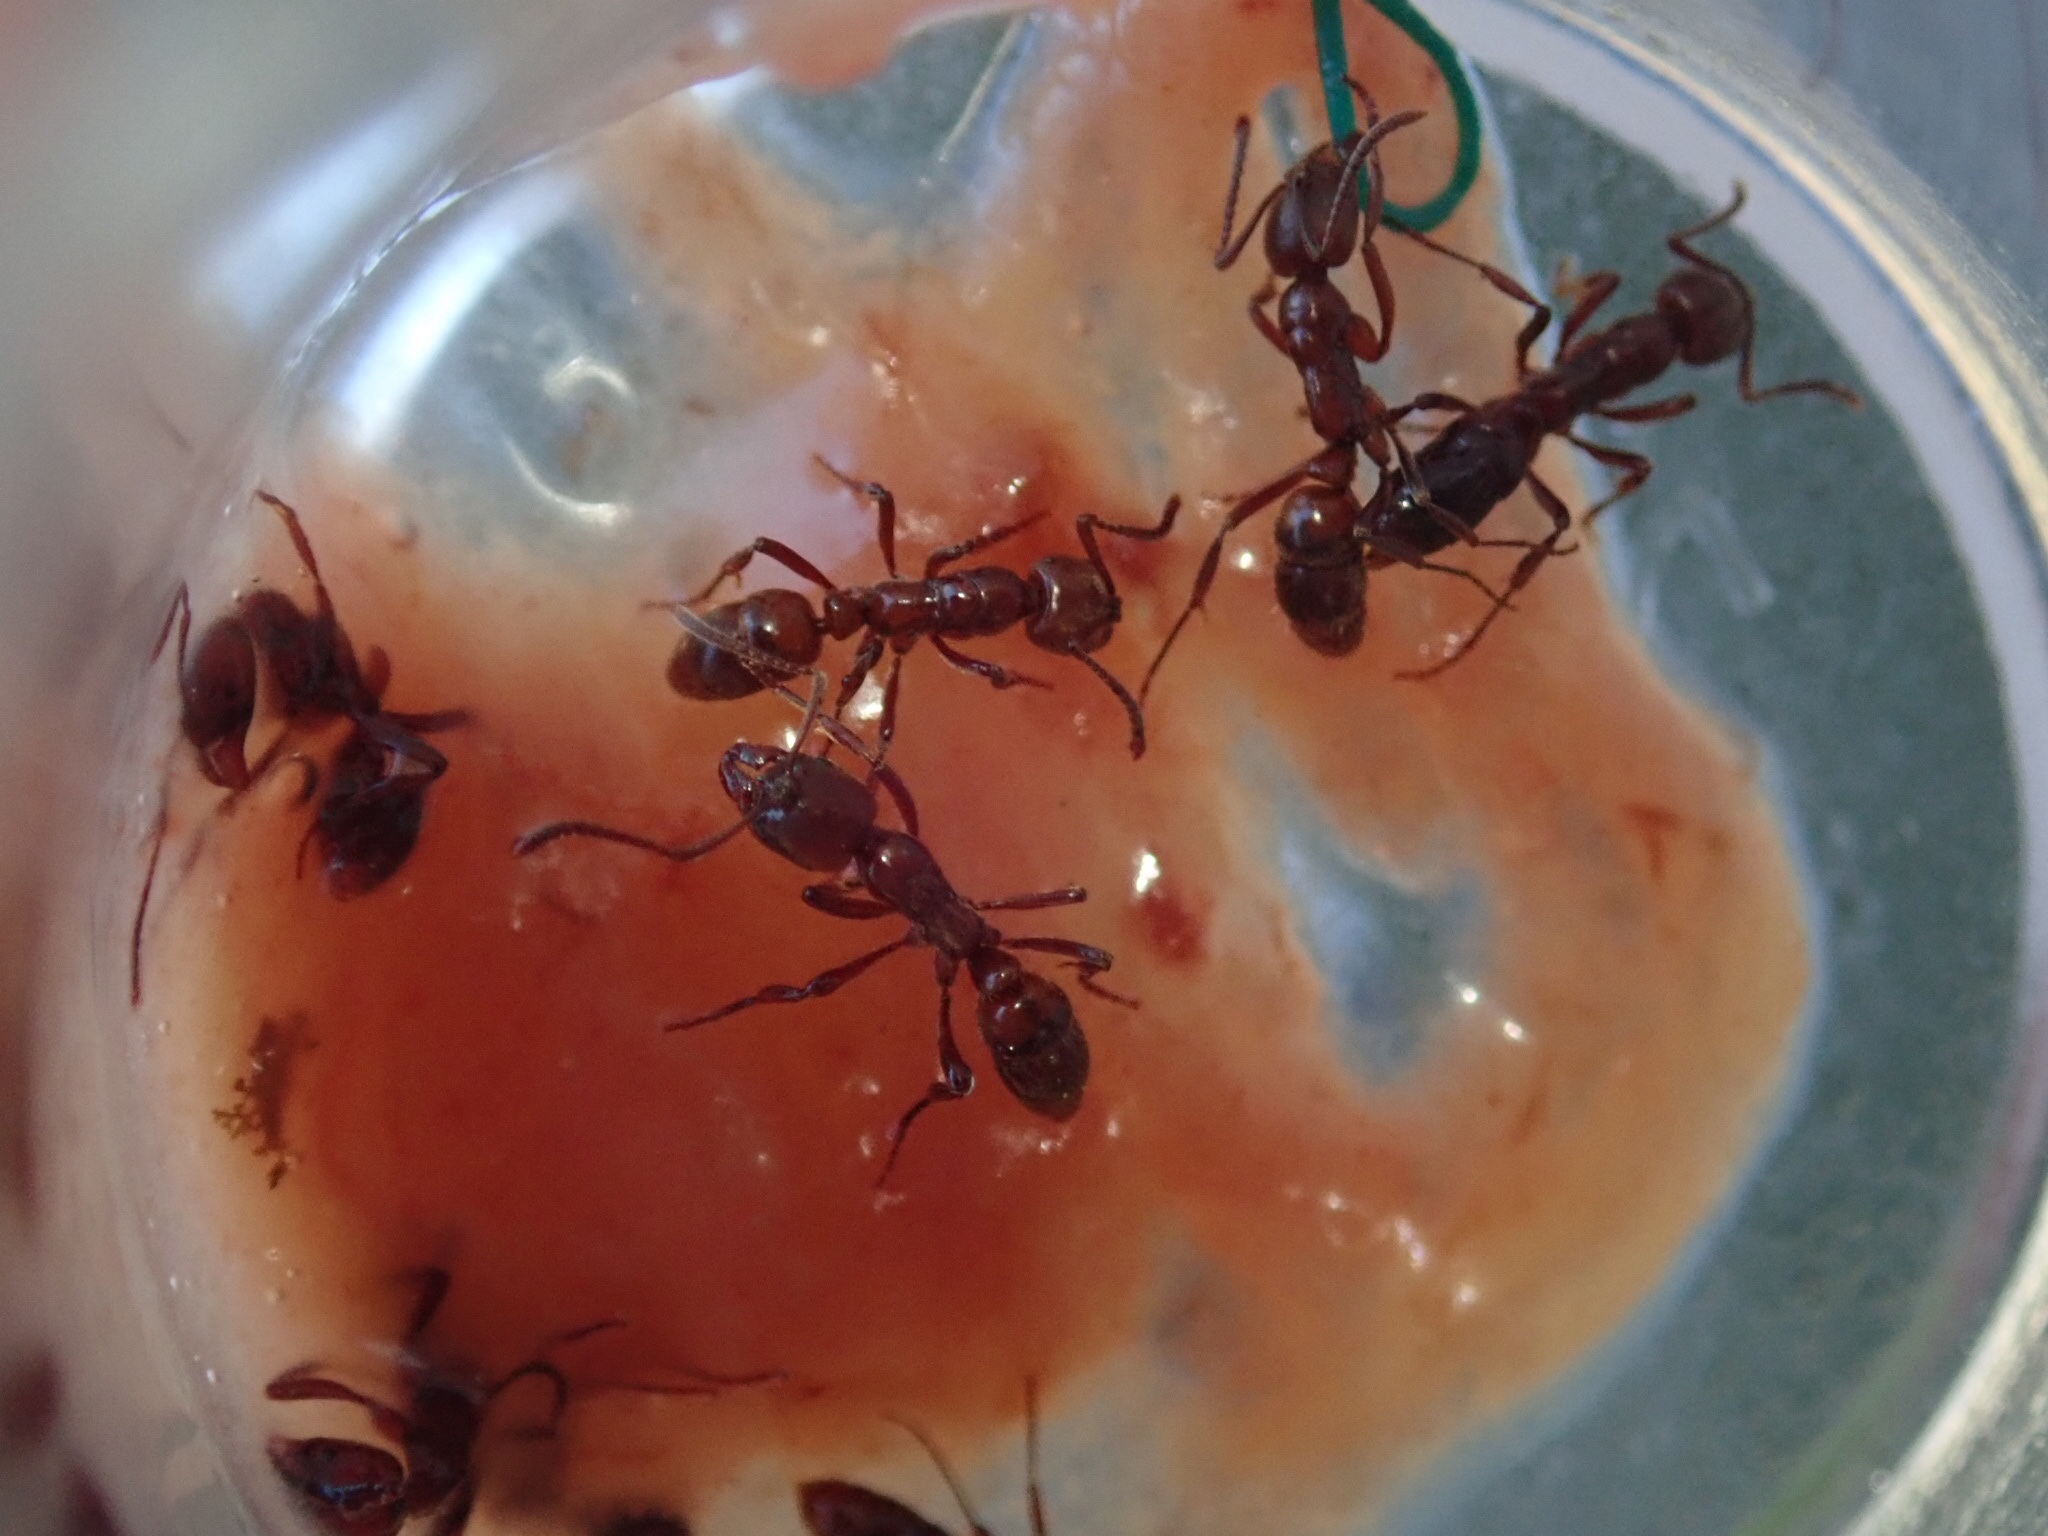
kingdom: Animalia
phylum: Arthropoda
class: Insecta
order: Hymenoptera
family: Formicidae
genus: Austroponera
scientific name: Austroponera
